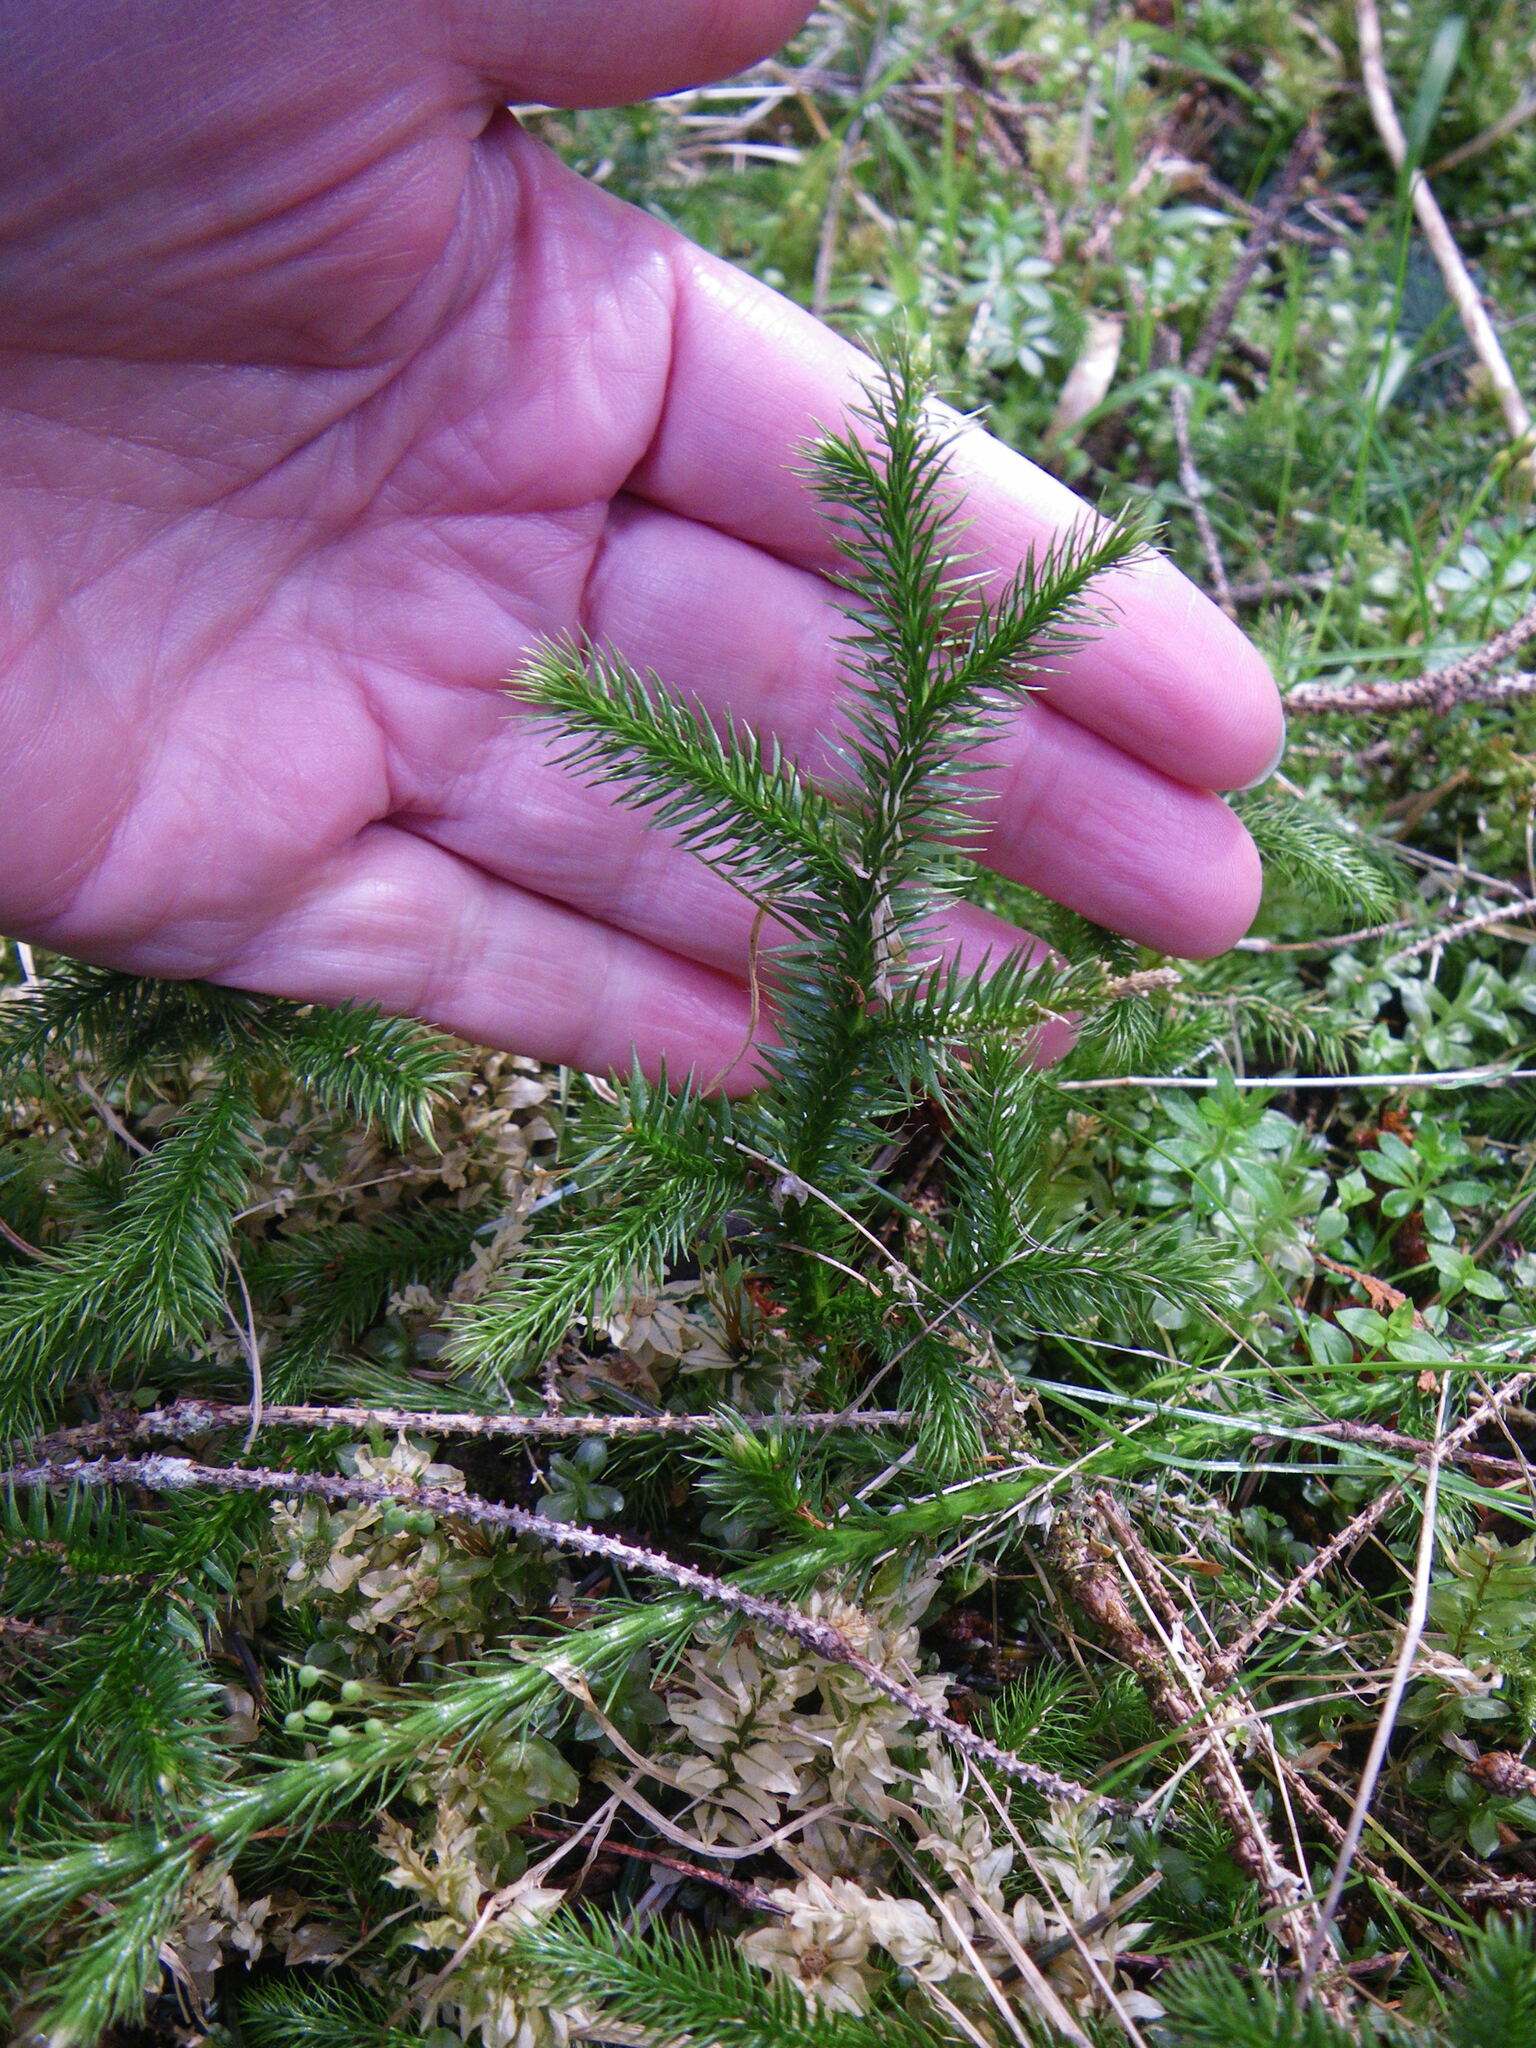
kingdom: Plantae
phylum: Tracheophyta
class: Lycopodiopsida
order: Lycopodiales
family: Lycopodiaceae
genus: Lycopodium
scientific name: Lycopodium clavatum
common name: Stag's-horn clubmoss
